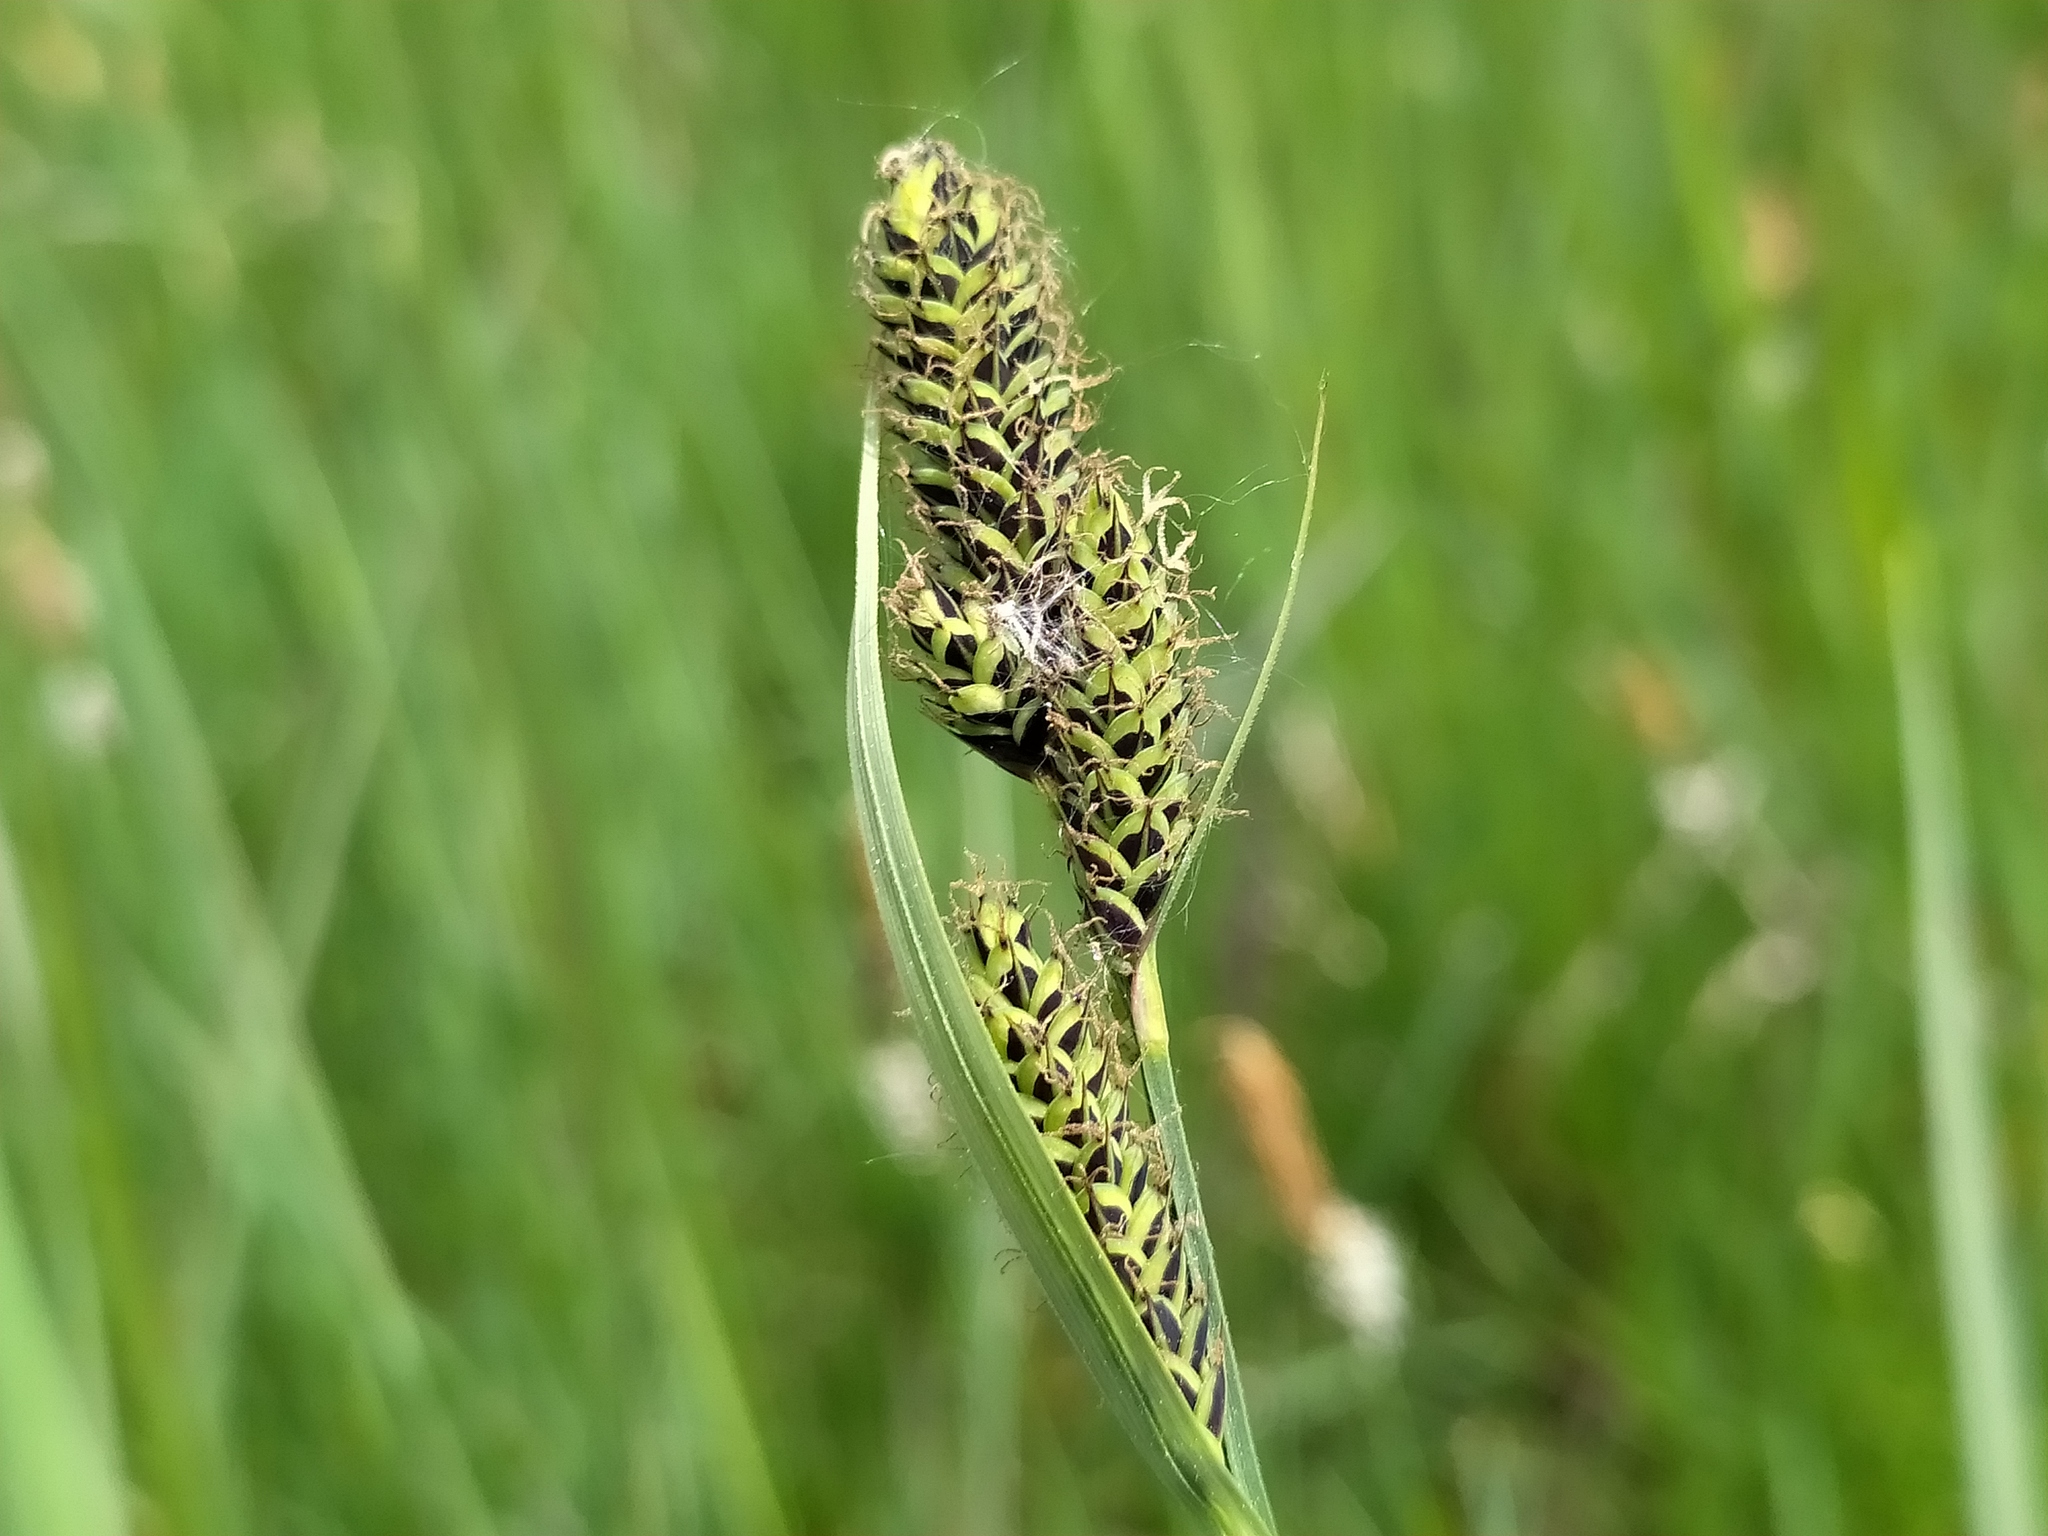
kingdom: Plantae
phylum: Tracheophyta
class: Liliopsida
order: Poales
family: Cyperaceae
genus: Carex
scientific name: Carex hartmaniorum
